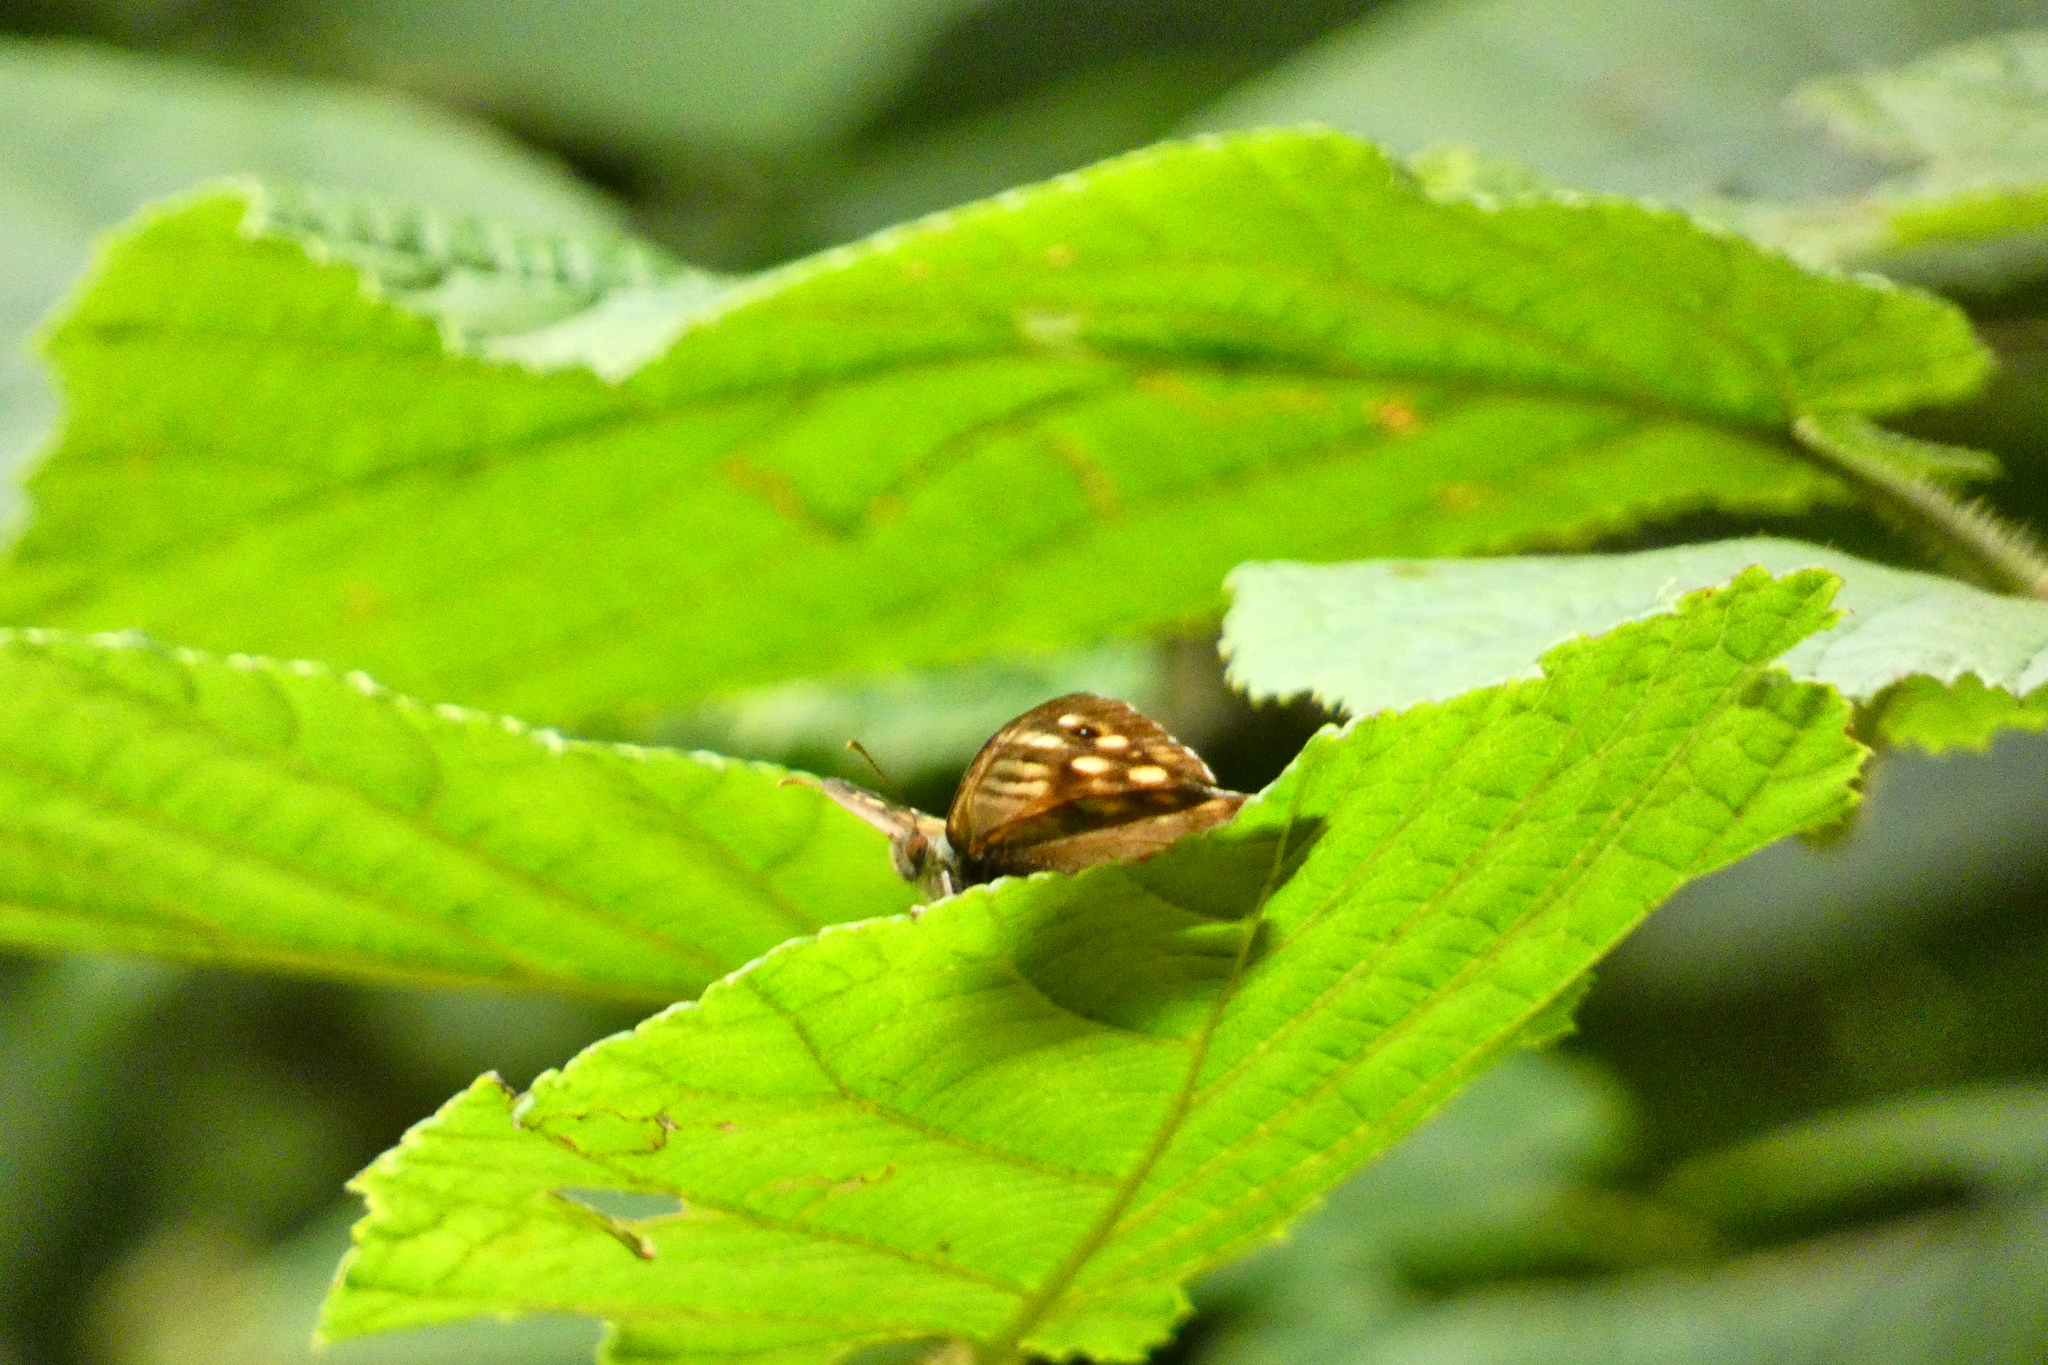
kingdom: Animalia
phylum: Arthropoda
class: Insecta
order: Lepidoptera
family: Nymphalidae
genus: Pararge
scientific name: Pararge aegeria
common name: Speckled wood
